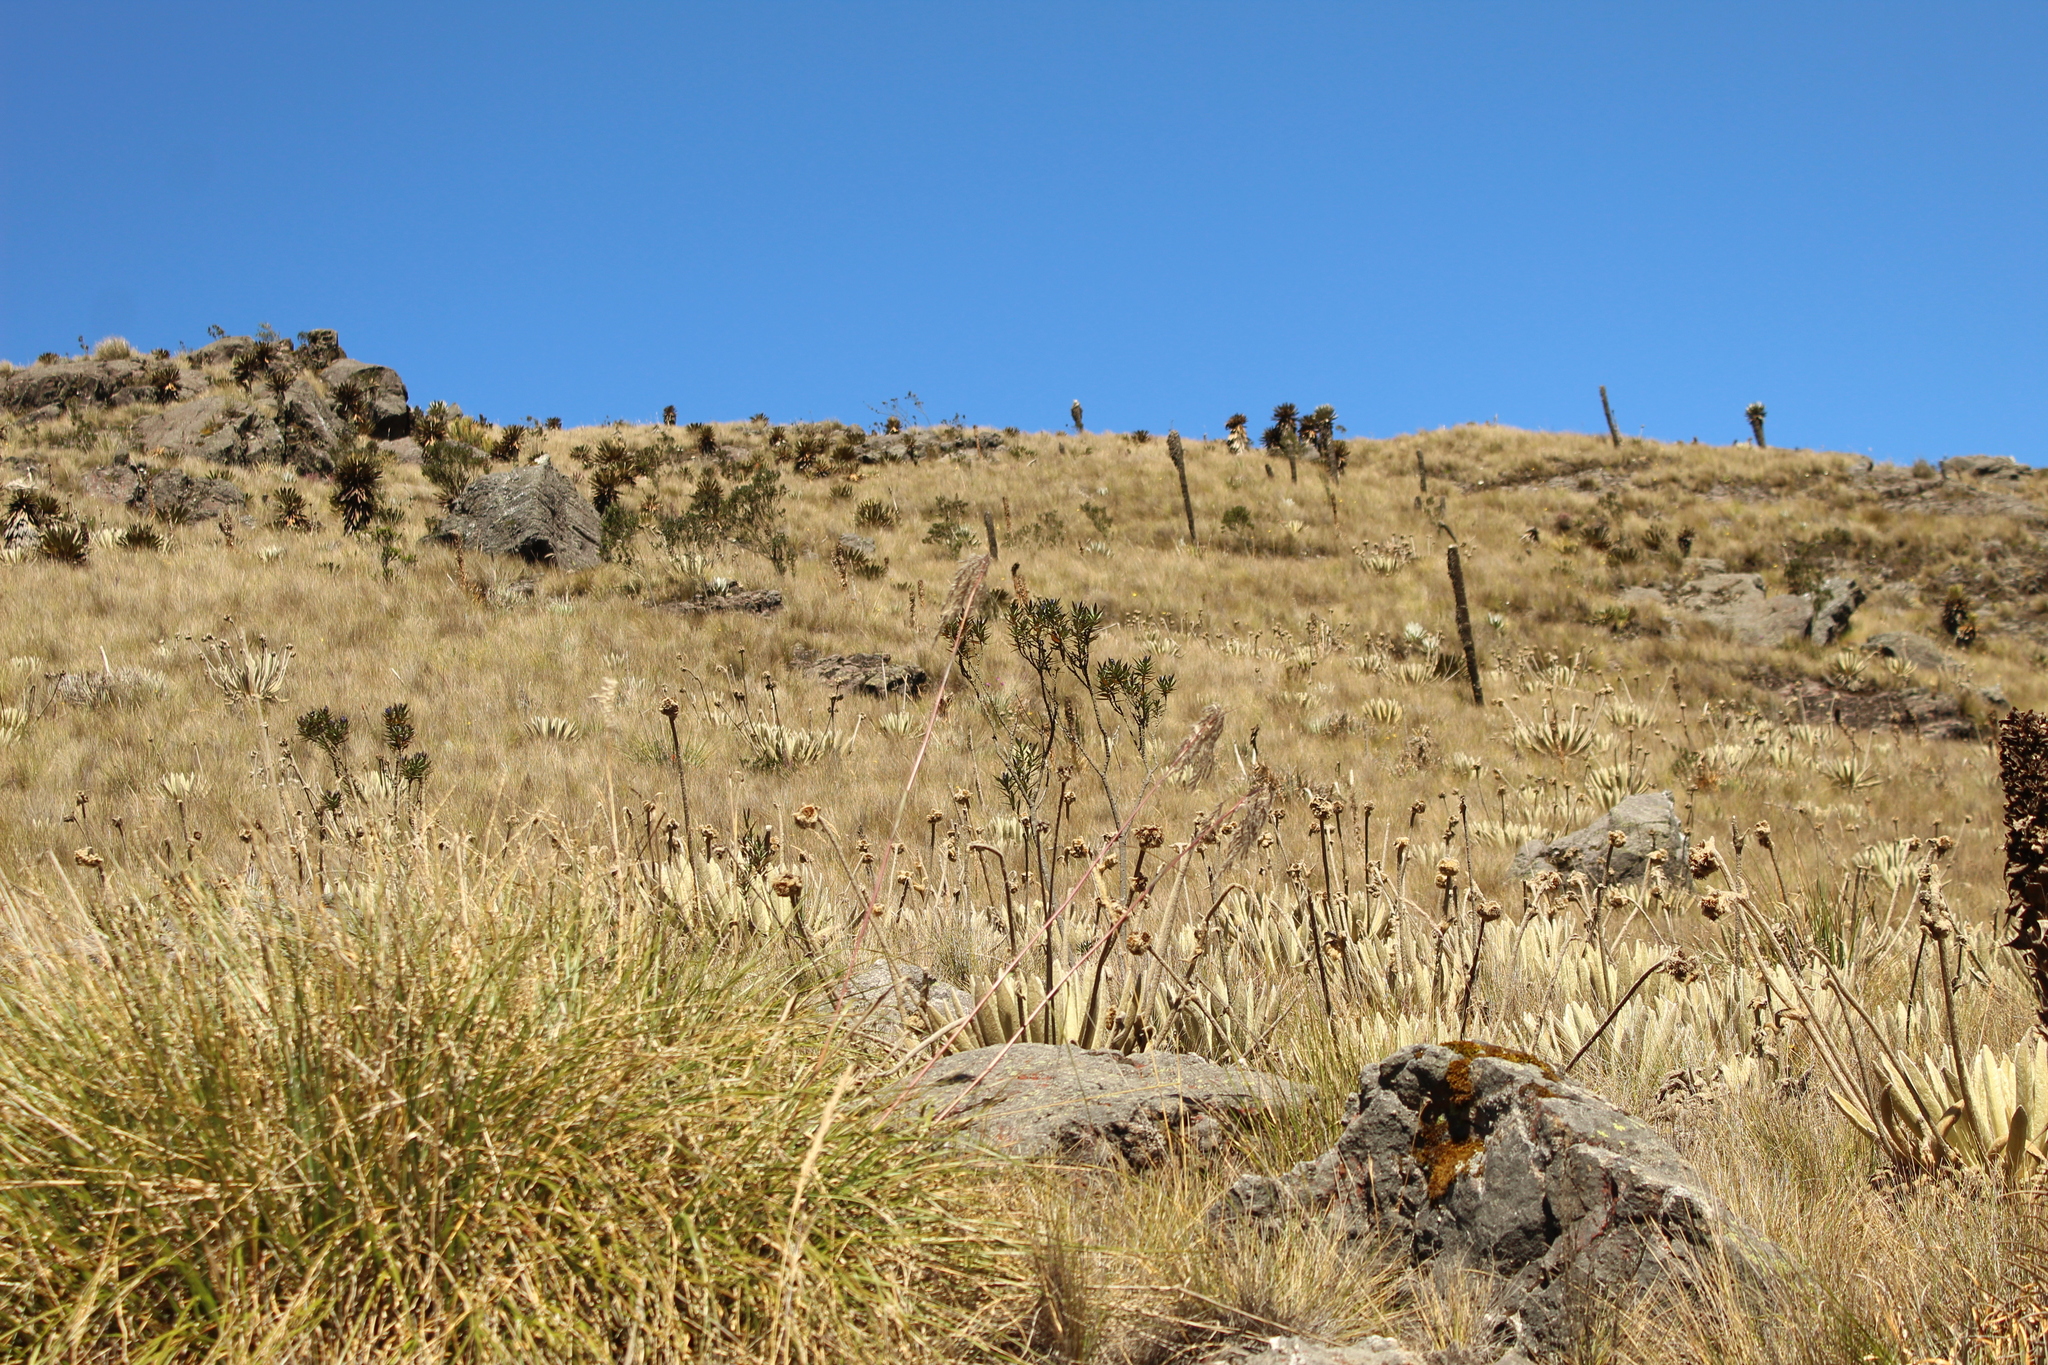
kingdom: Plantae
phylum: Tracheophyta
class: Magnoliopsida
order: Asterales
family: Asteraceae
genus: Espeletia
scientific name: Espeletia congestiflora
